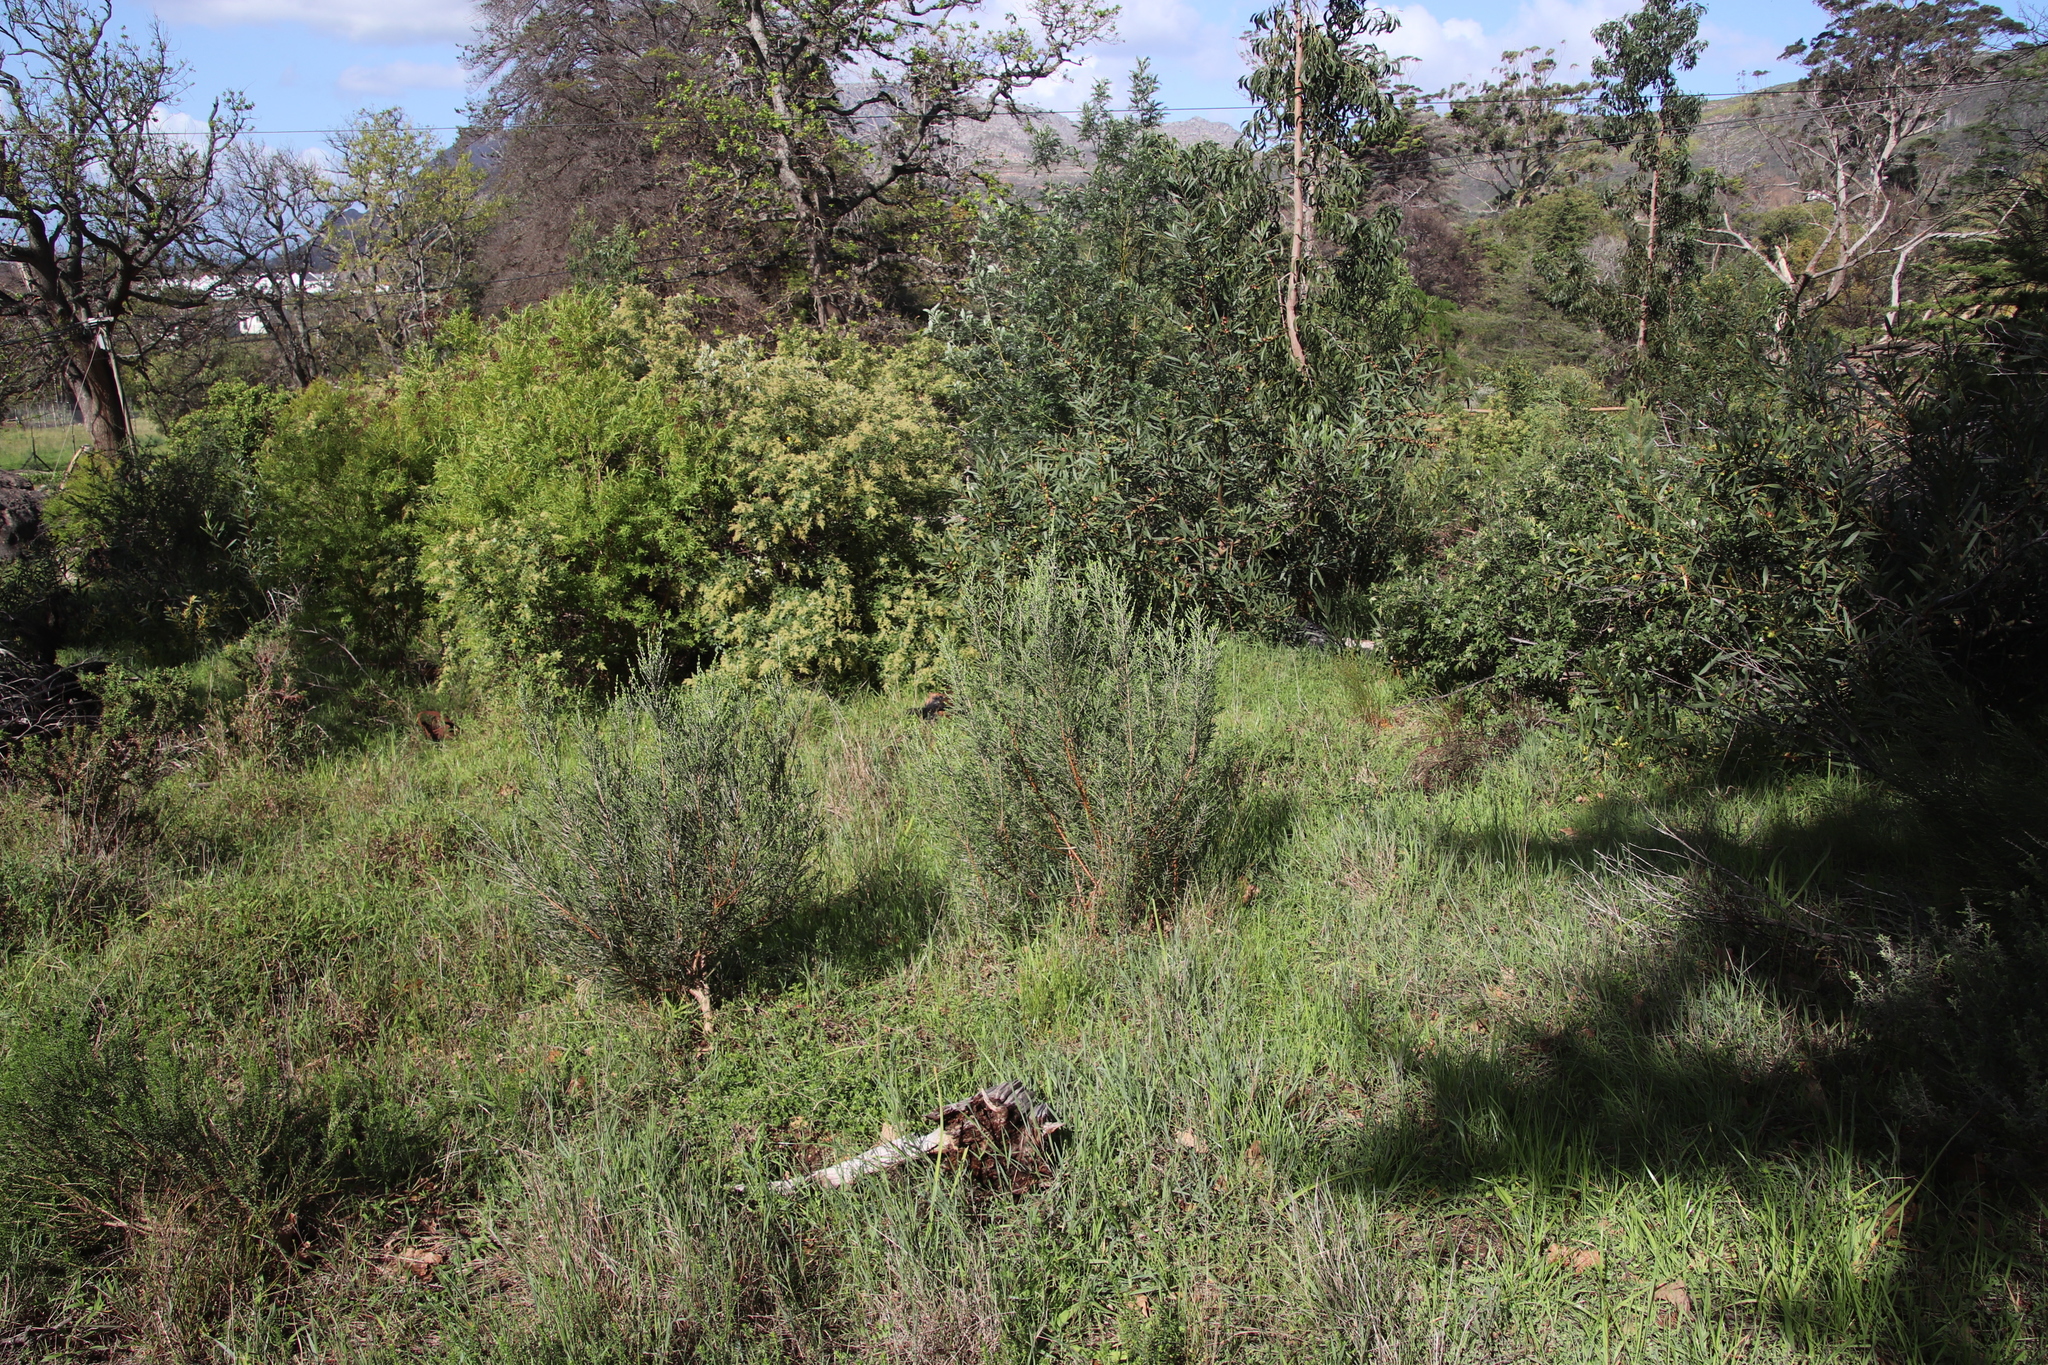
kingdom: Plantae
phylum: Tracheophyta
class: Magnoliopsida
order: Malvales
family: Thymelaeaceae
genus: Passerina
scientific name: Passerina corymbosa
